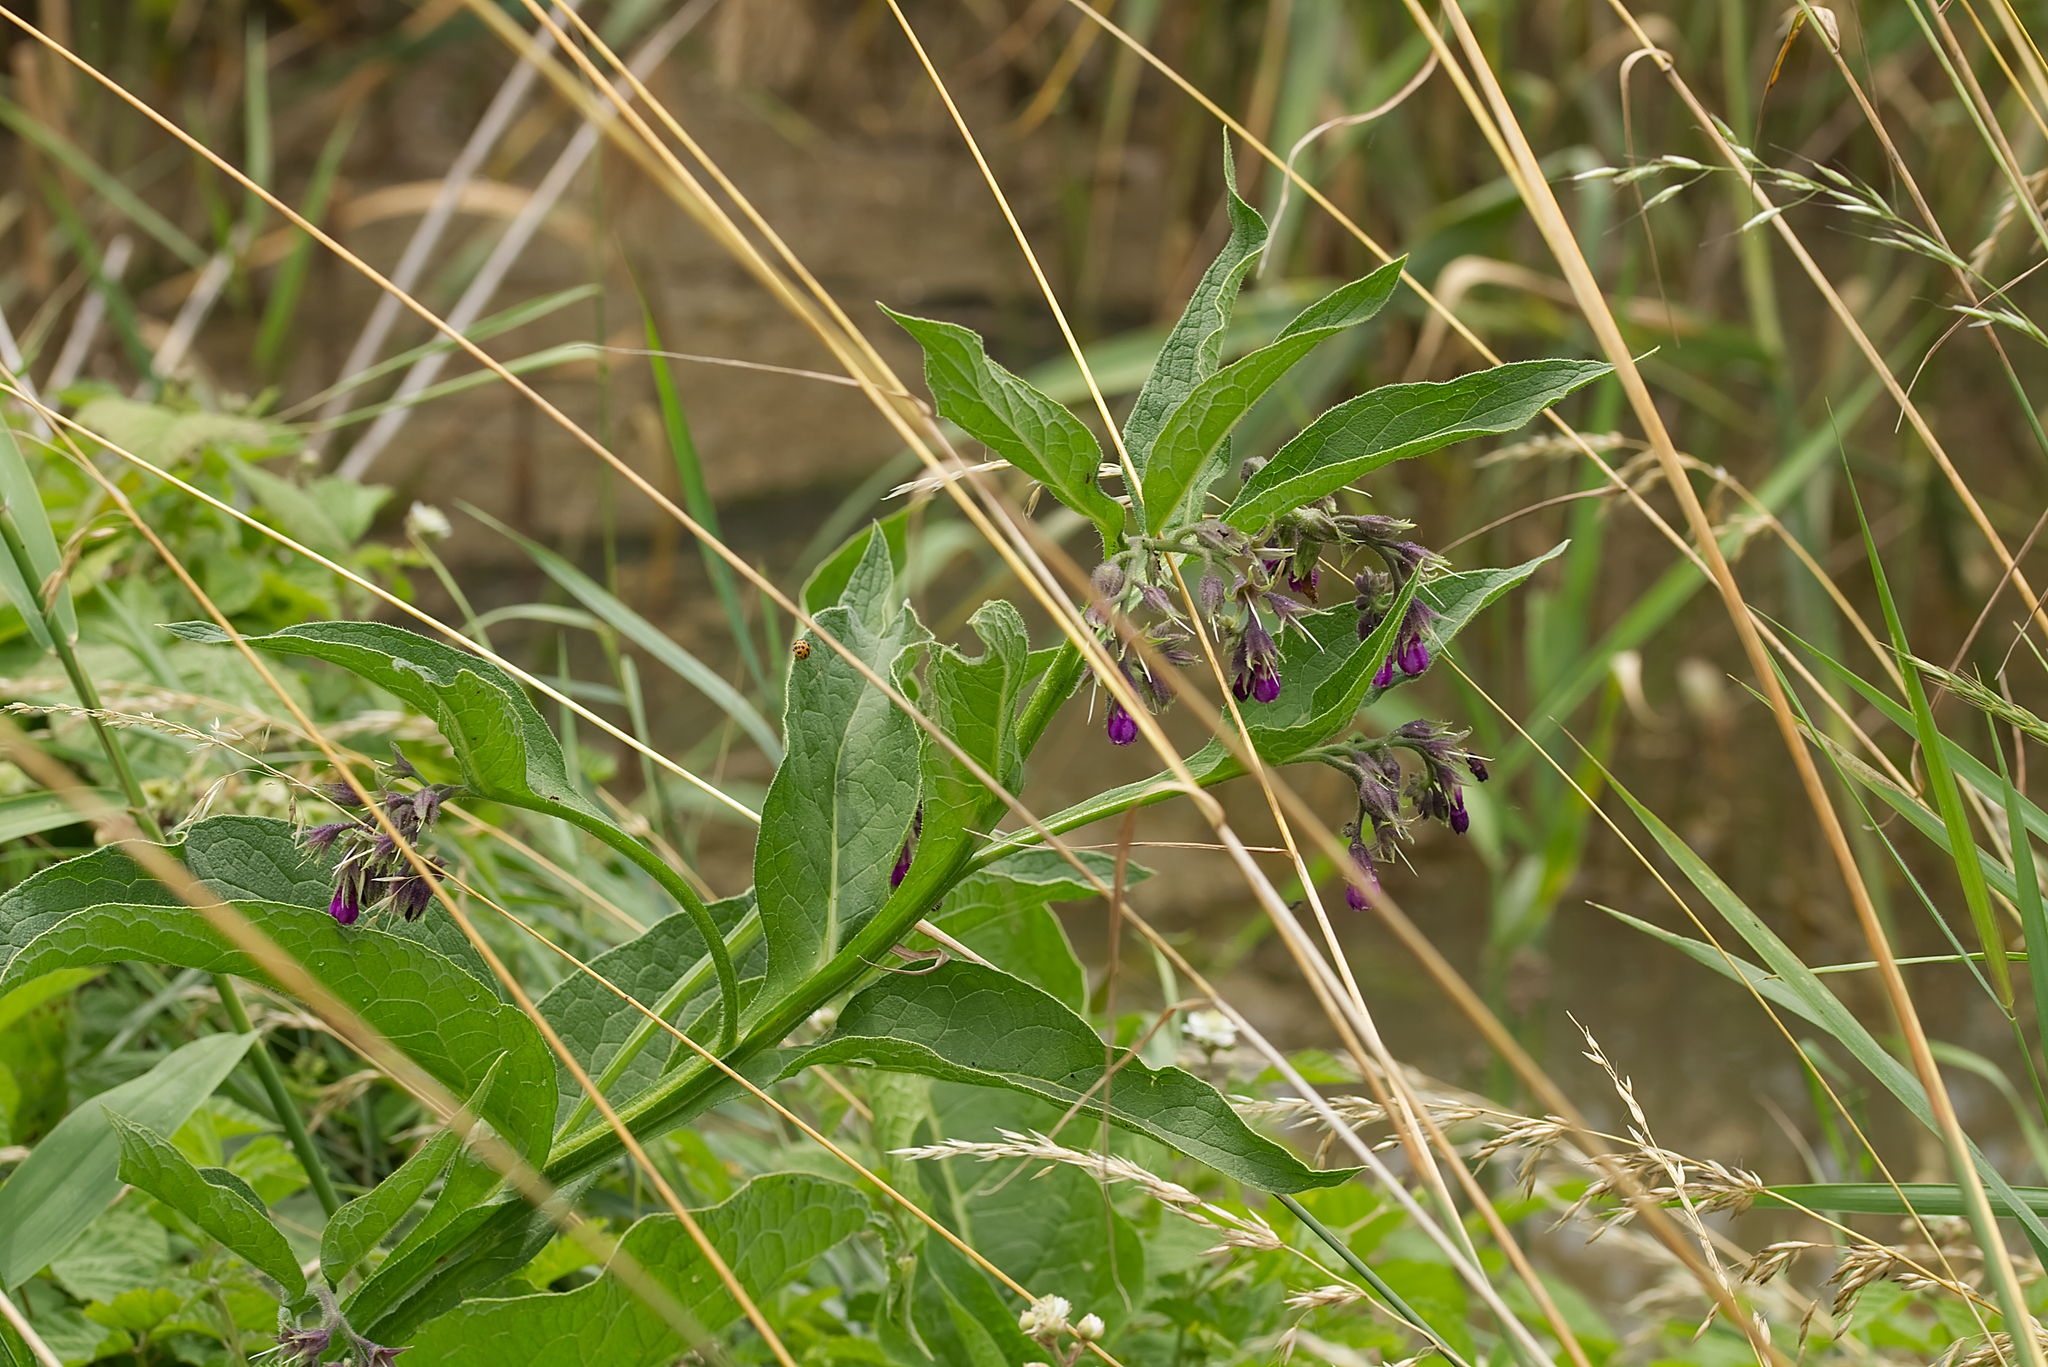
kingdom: Plantae
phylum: Tracheophyta
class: Magnoliopsida
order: Boraginales
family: Boraginaceae
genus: Symphytum
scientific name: Symphytum officinale
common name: Common comfrey
